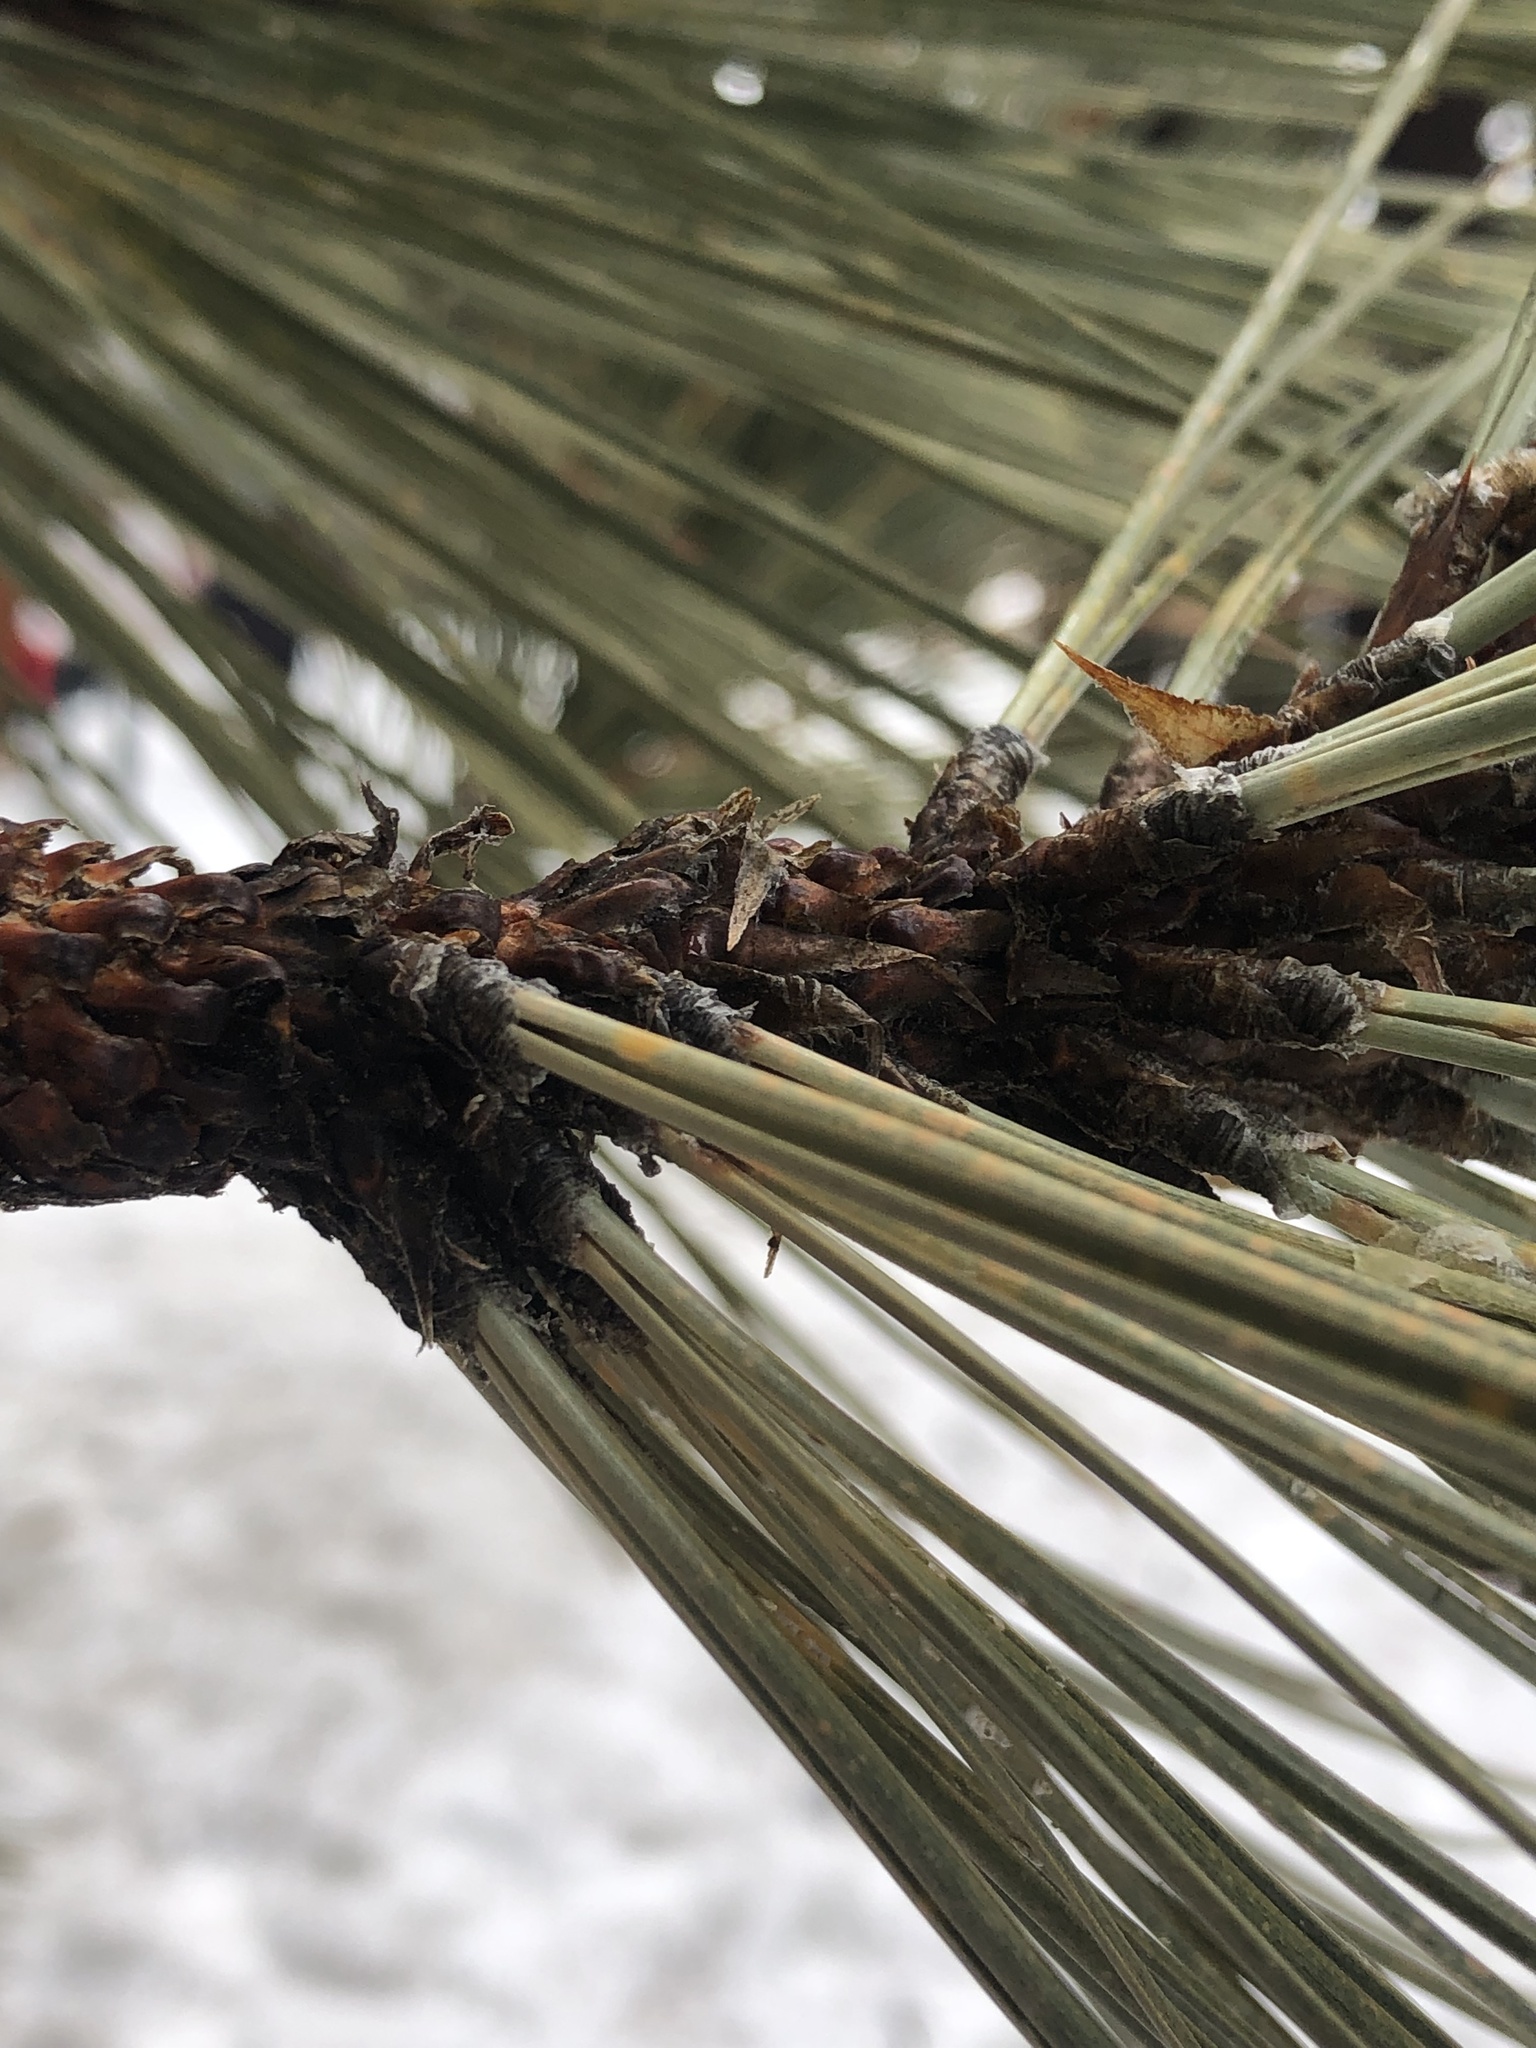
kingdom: Plantae
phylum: Tracheophyta
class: Pinopsida
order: Pinales
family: Pinaceae
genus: Pinus
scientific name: Pinus jeffreyi
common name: Jeffrey pine
